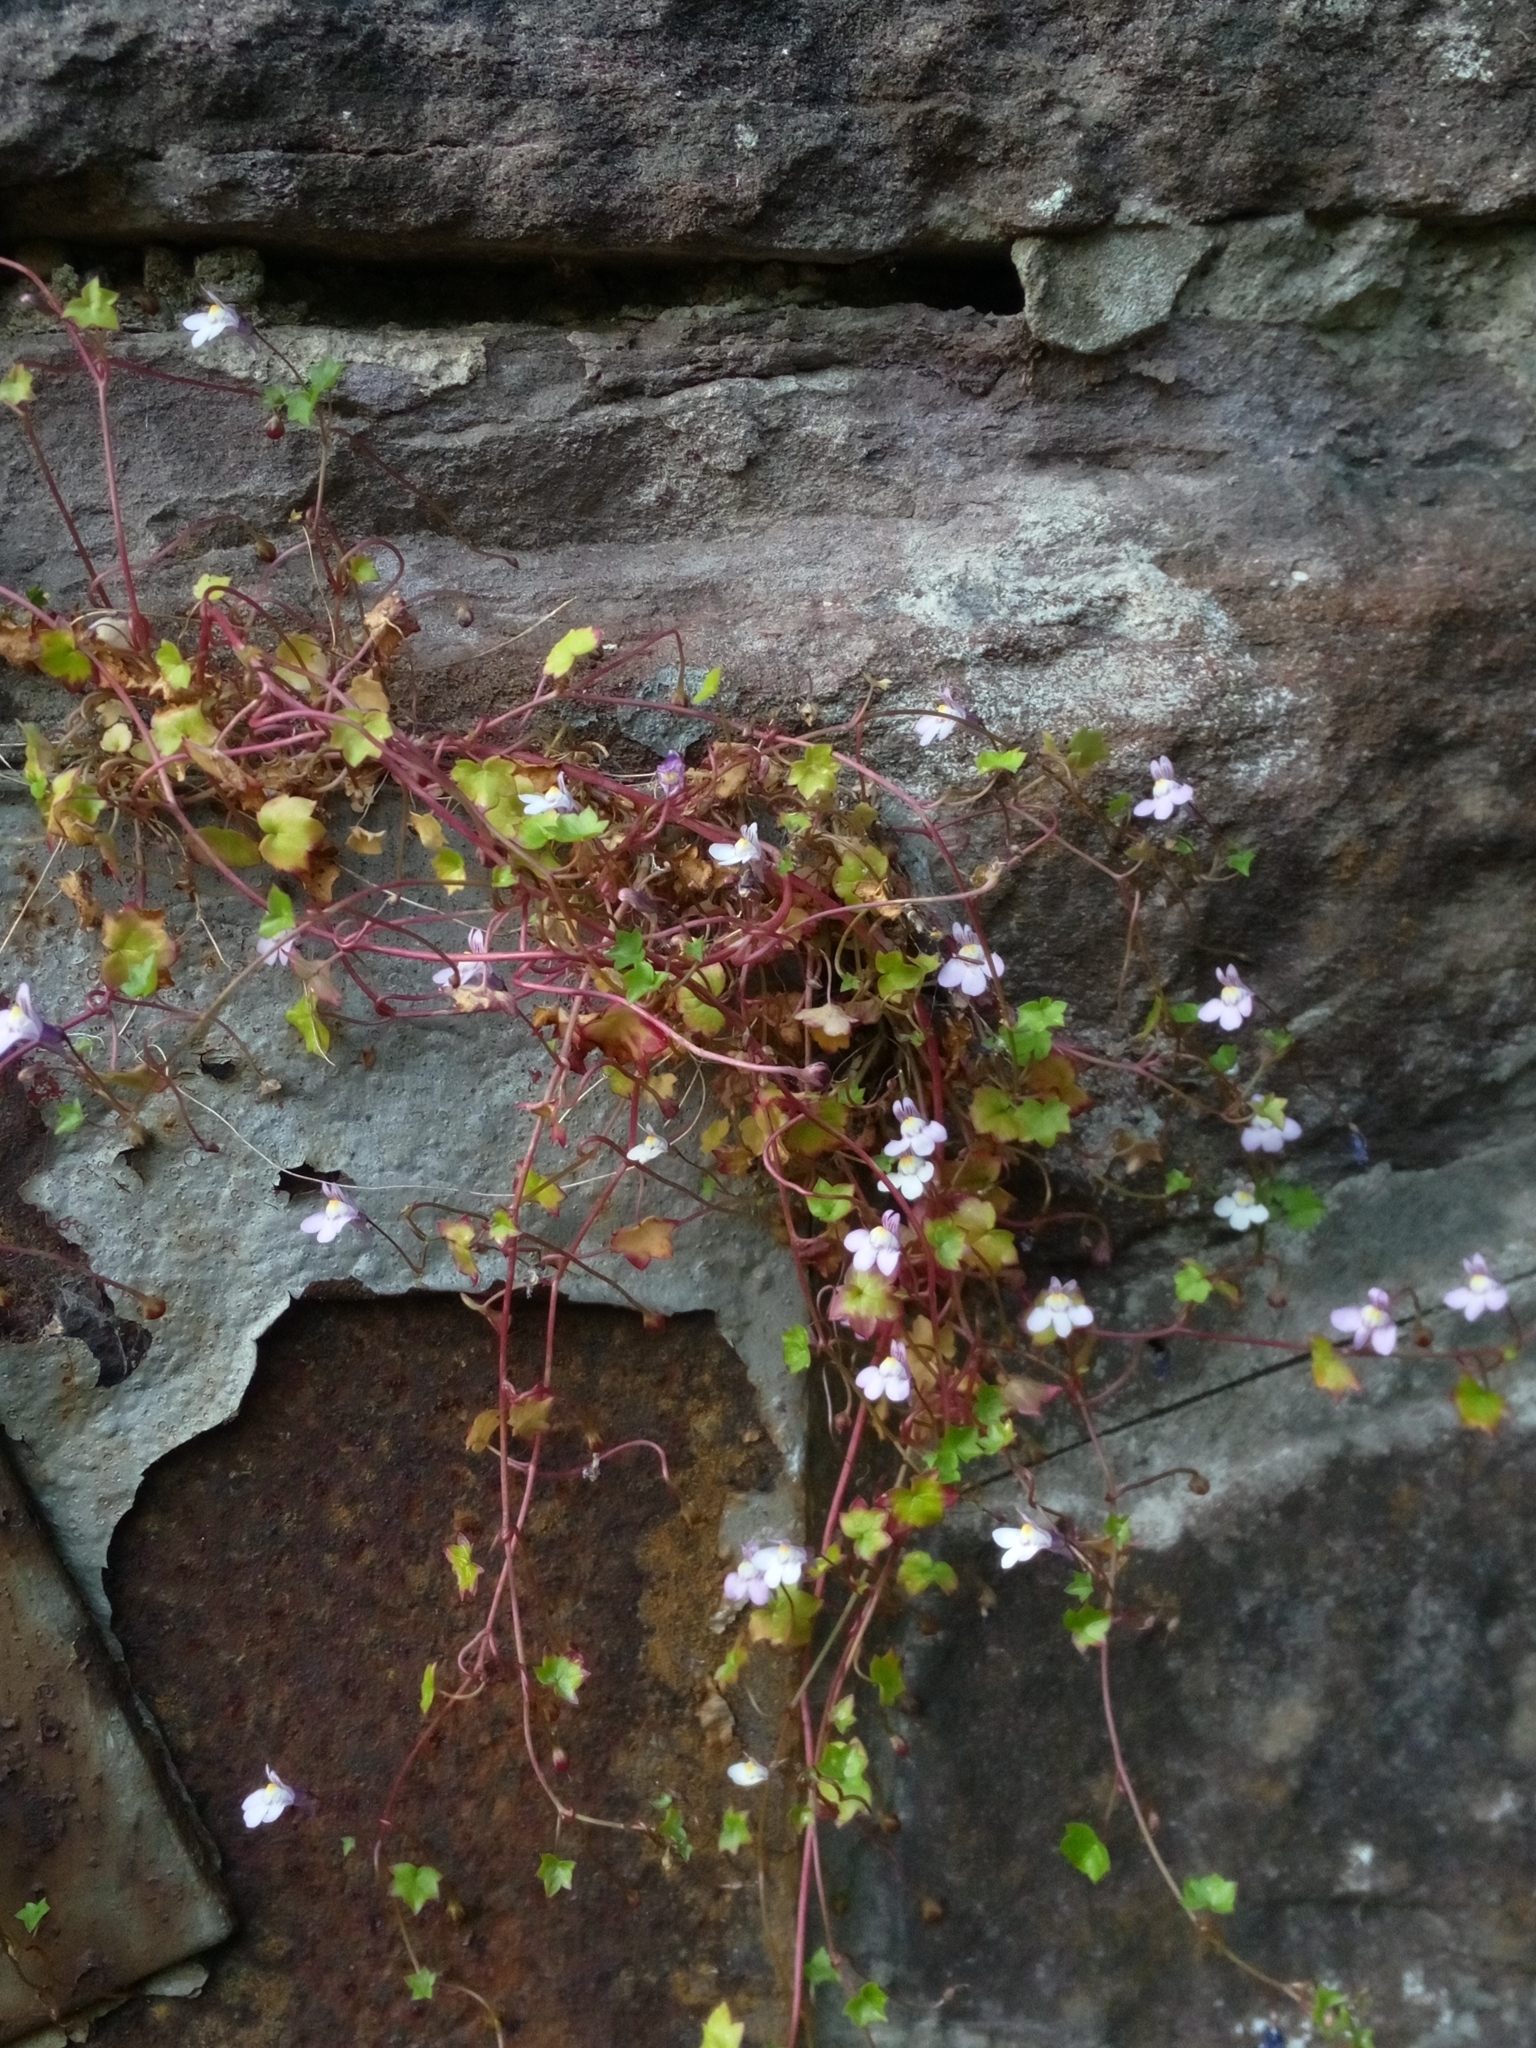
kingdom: Plantae
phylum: Tracheophyta
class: Magnoliopsida
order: Lamiales
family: Plantaginaceae
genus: Cymbalaria
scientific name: Cymbalaria muralis
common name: Ivy-leaved toadflax
